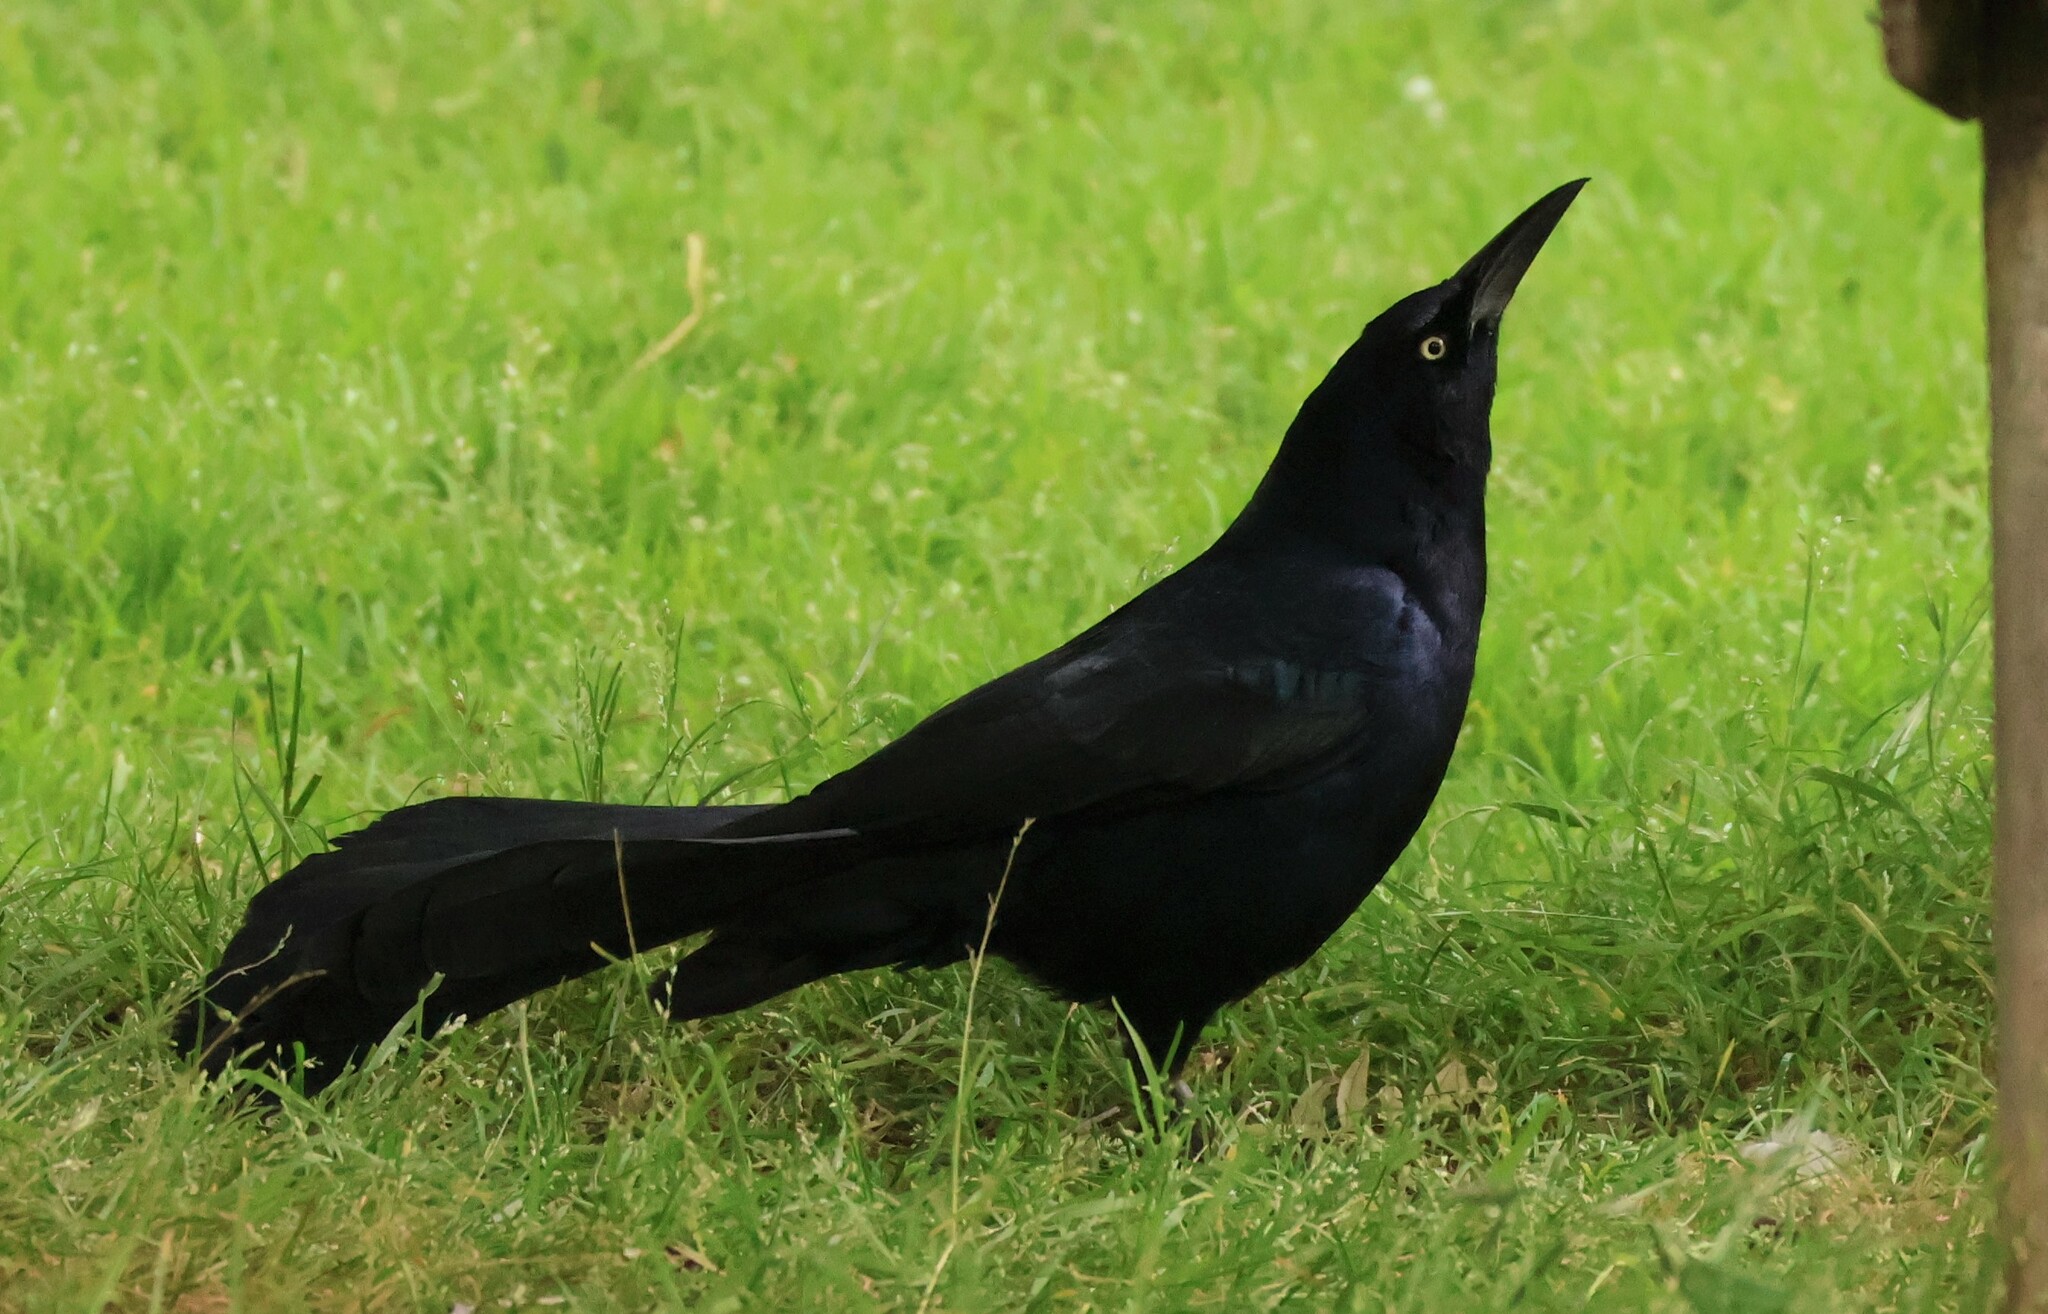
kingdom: Animalia
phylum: Chordata
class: Aves
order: Passeriformes
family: Icteridae
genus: Quiscalus
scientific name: Quiscalus mexicanus
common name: Great-tailed grackle
